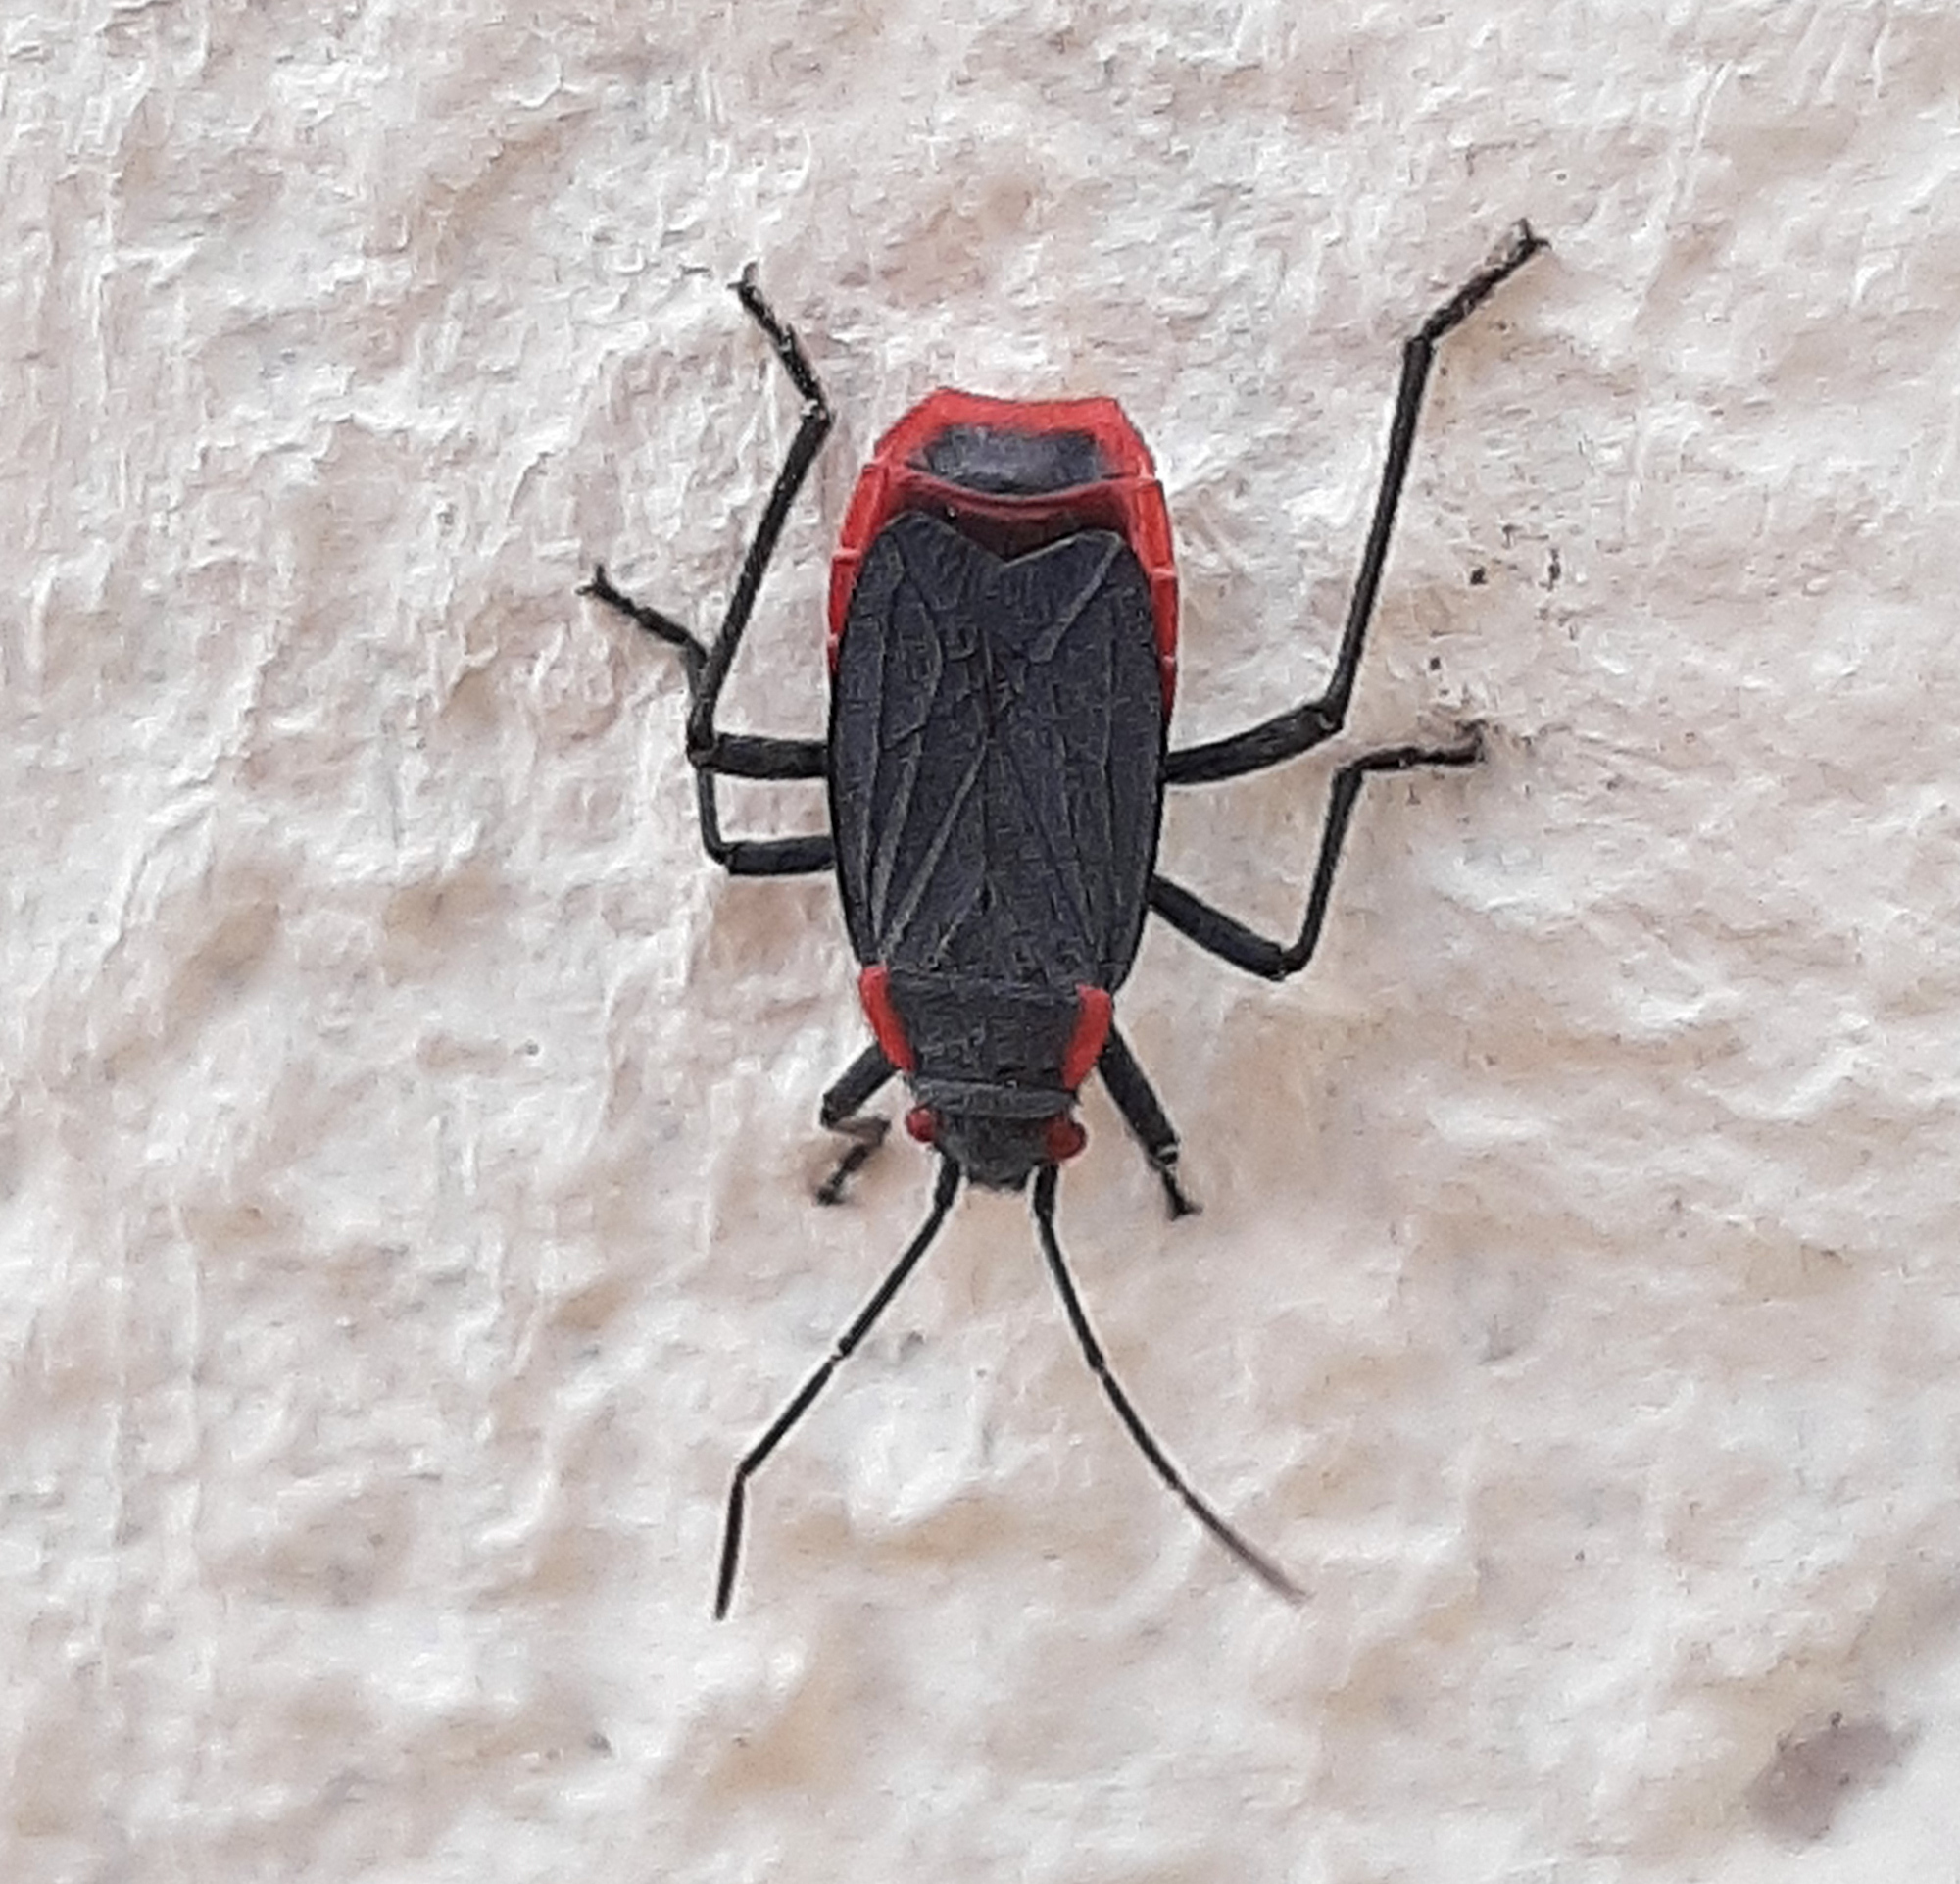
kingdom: Animalia
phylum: Arthropoda
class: Insecta
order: Hemiptera
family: Rhopalidae
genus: Jadera
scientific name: Jadera haematoloma
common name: Red-shouldered bug
